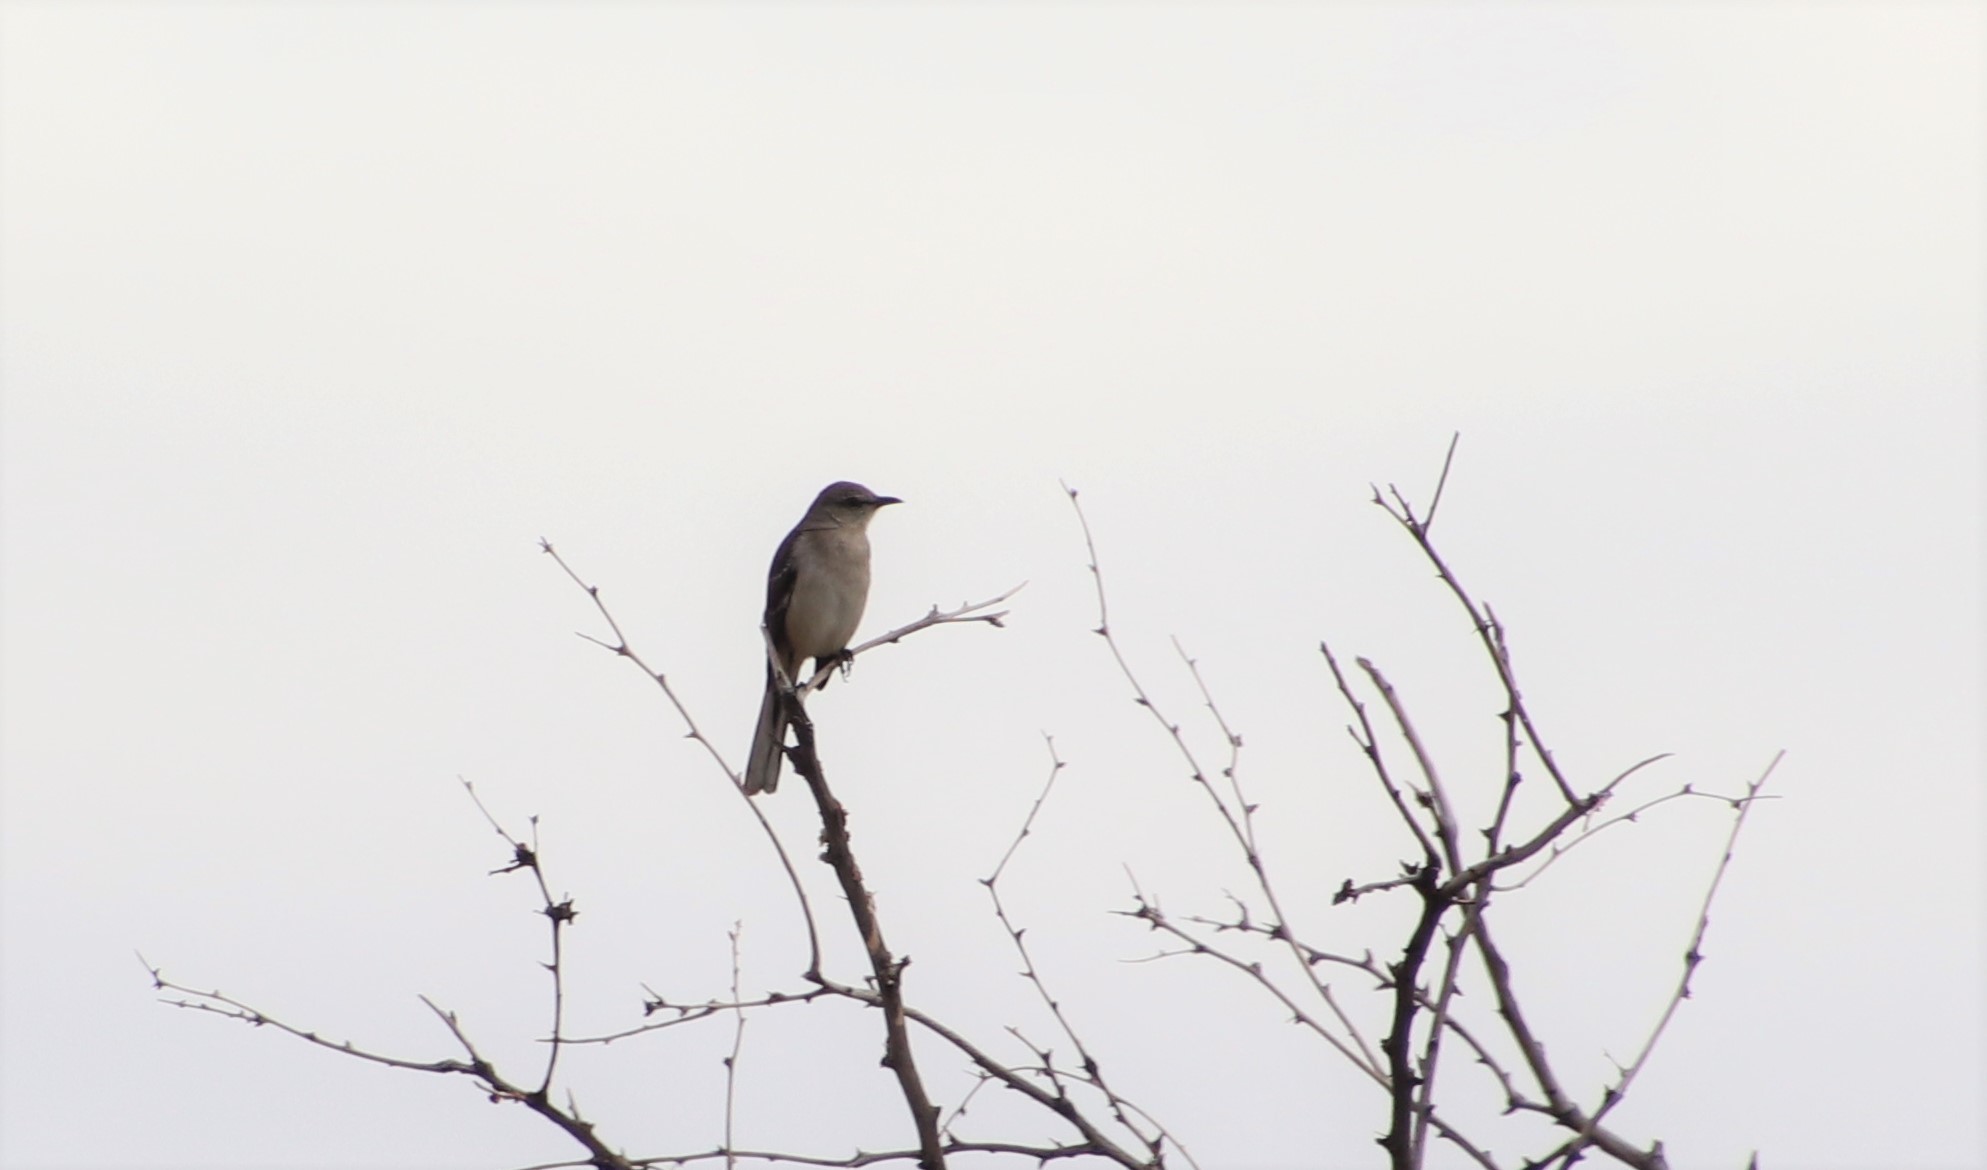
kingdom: Animalia
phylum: Chordata
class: Aves
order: Passeriformes
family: Mimidae
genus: Mimus
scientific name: Mimus polyglottos
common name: Northern mockingbird
